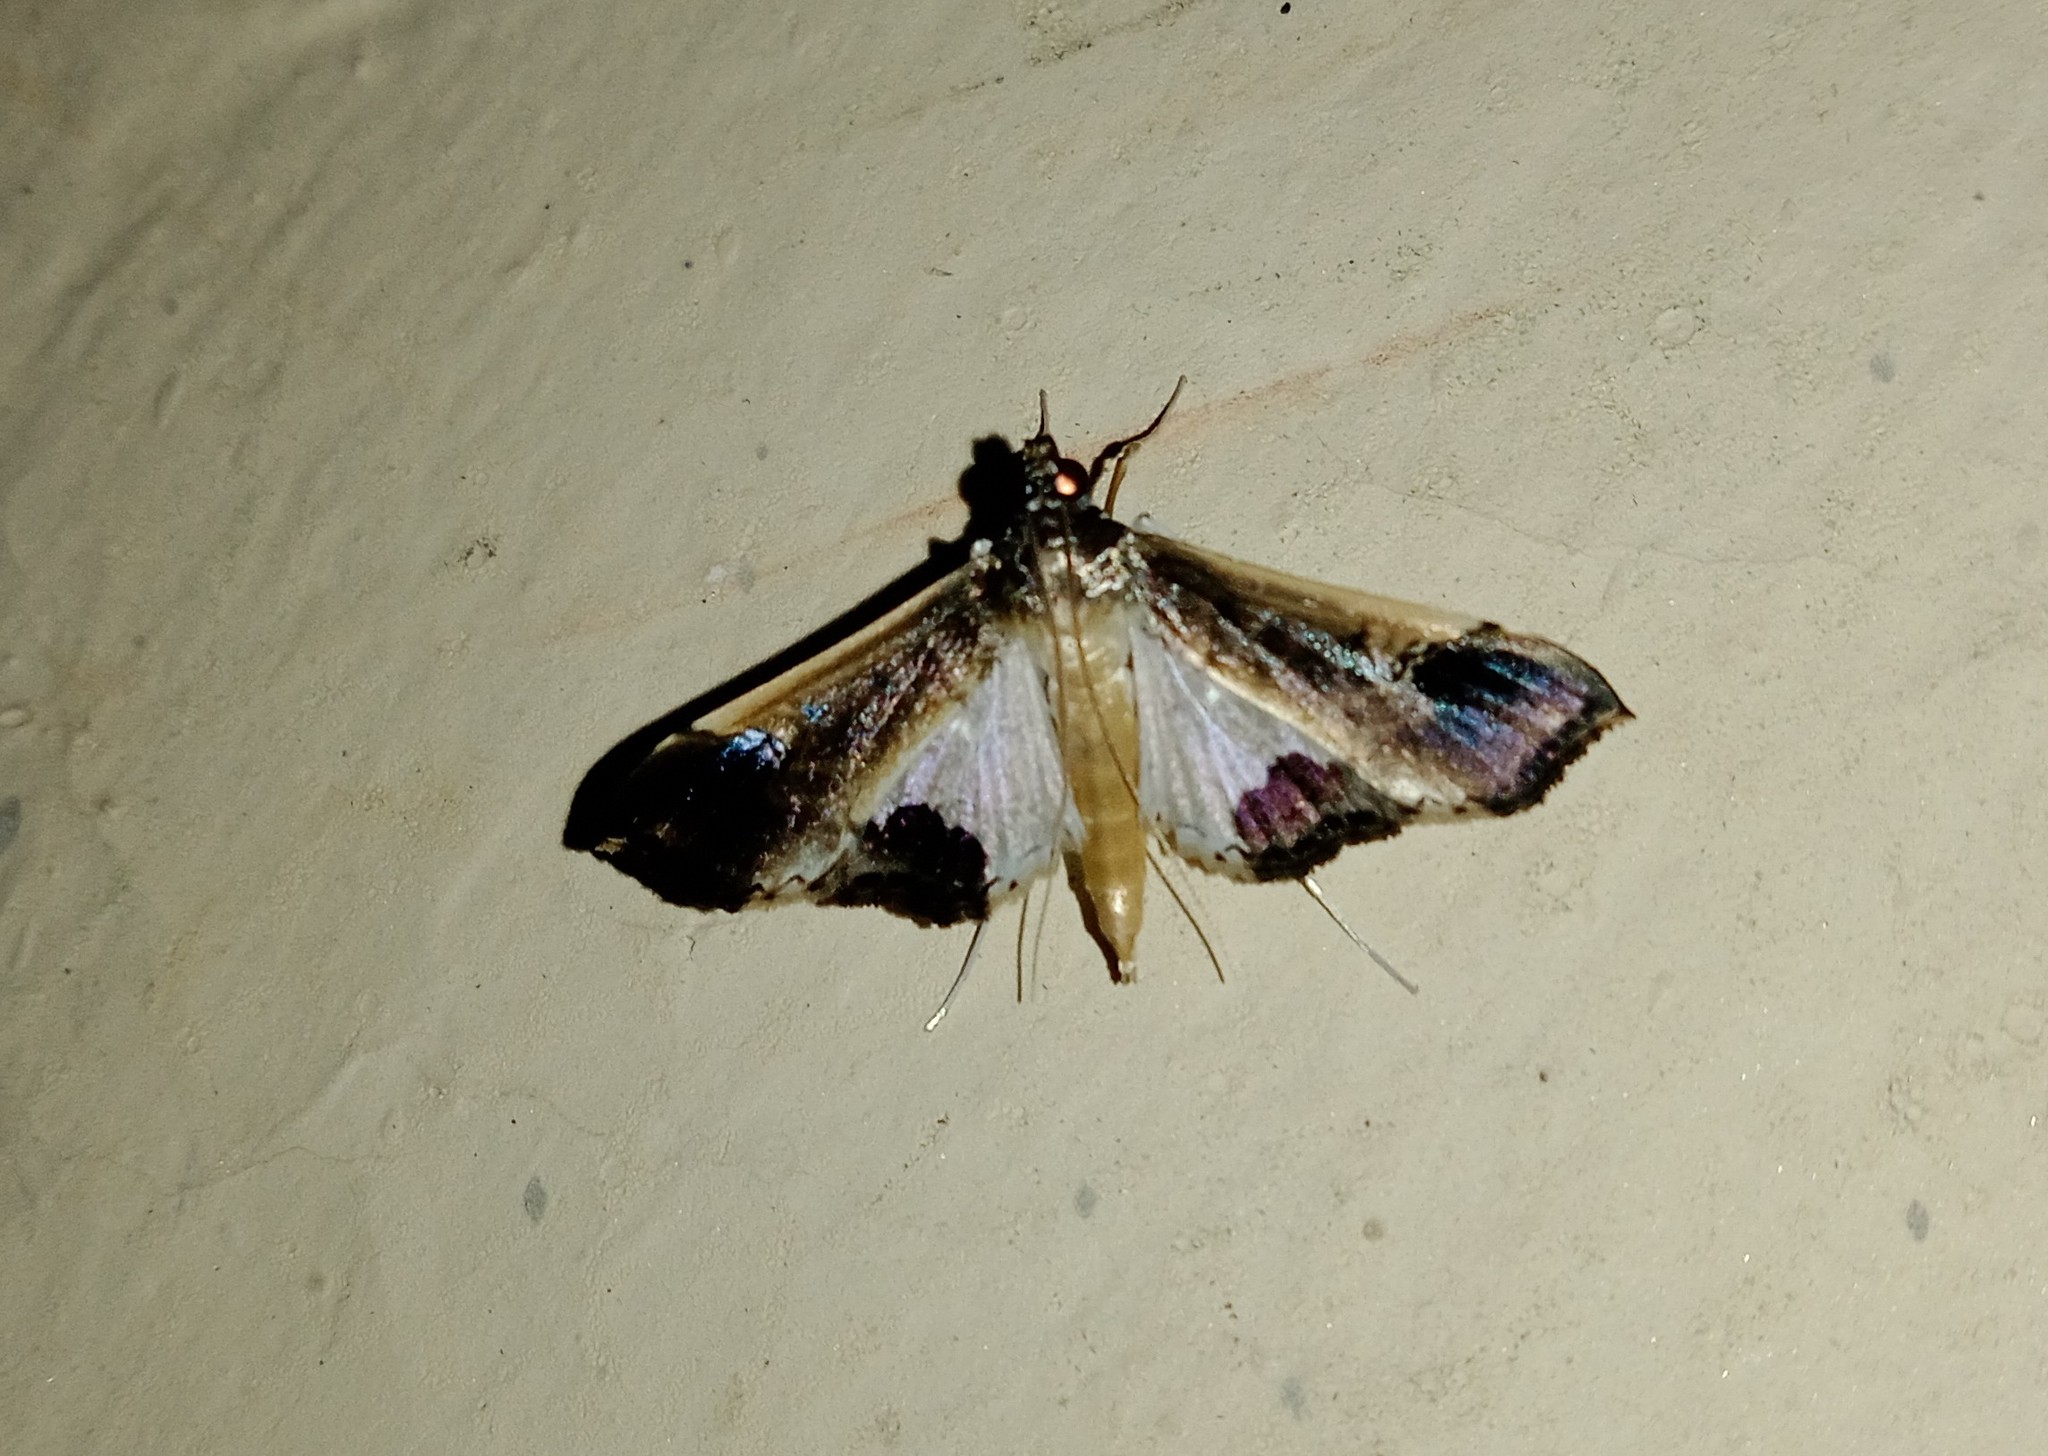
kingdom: Animalia
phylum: Arthropoda
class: Insecta
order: Lepidoptera
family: Crambidae
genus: Maruca
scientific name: Maruca amboinalis
